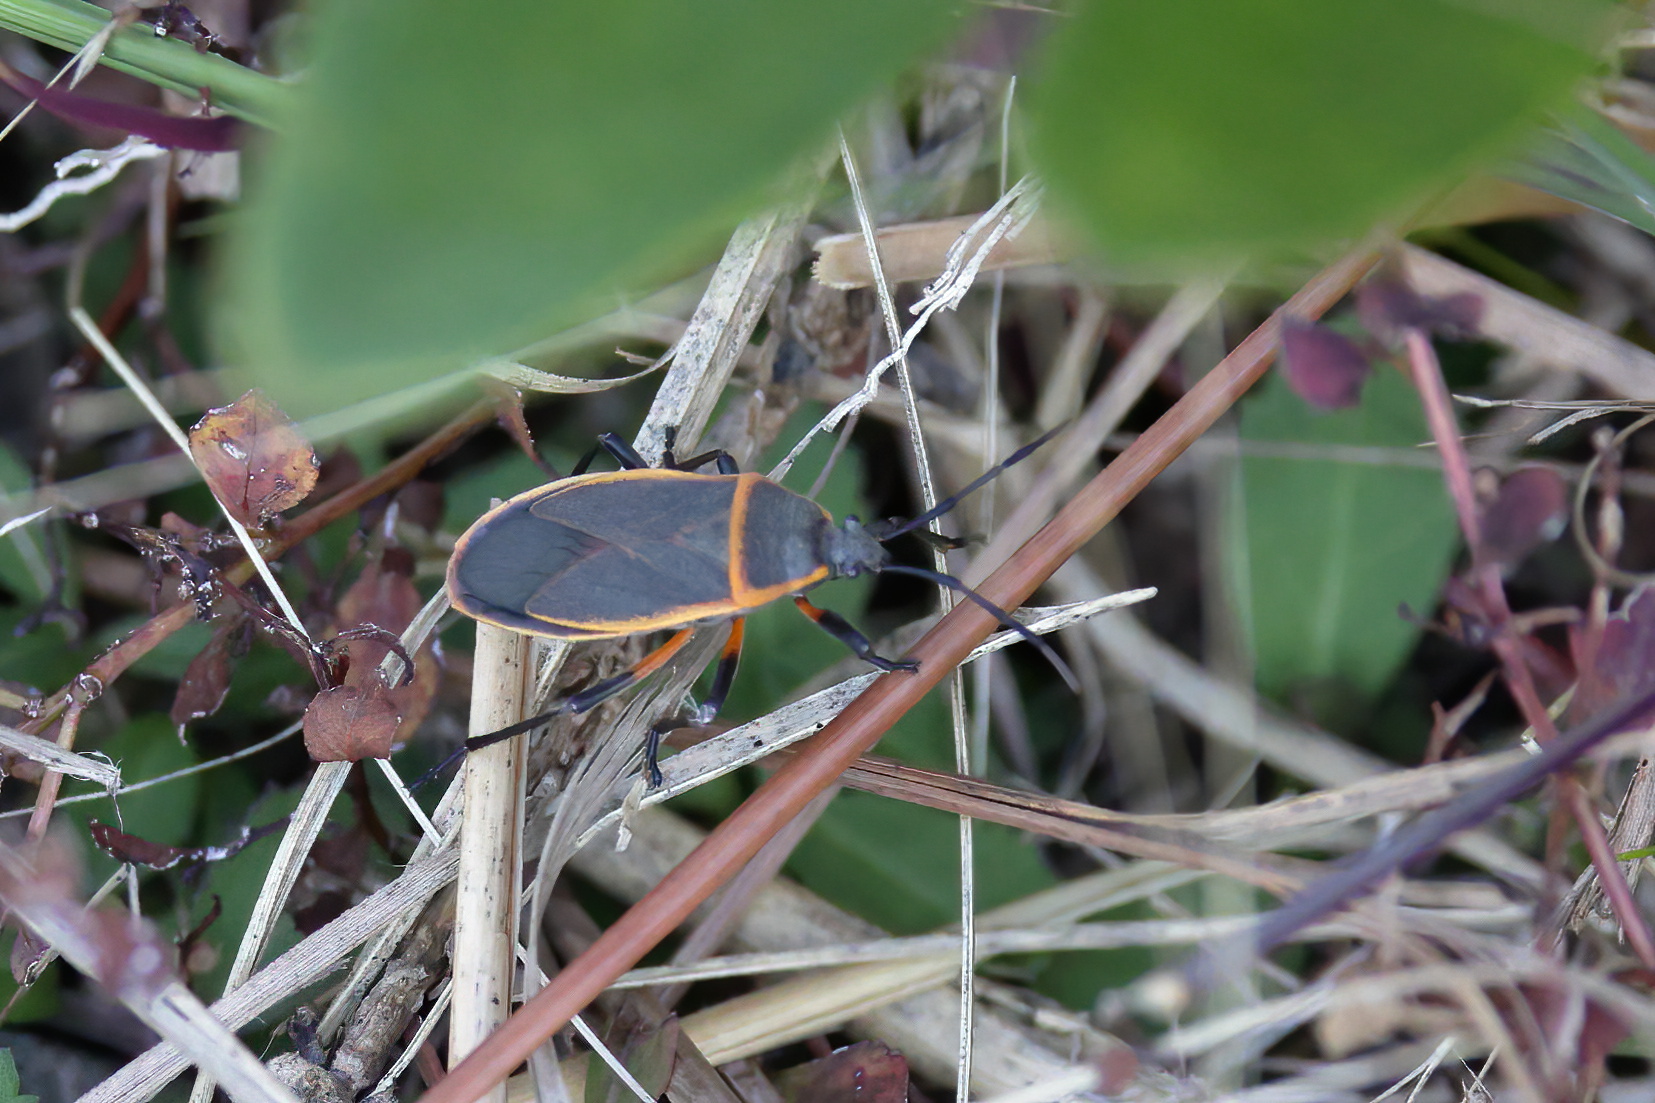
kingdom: Animalia
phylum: Arthropoda
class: Insecta
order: Hemiptera
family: Largidae
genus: Largus
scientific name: Largus succinctus
